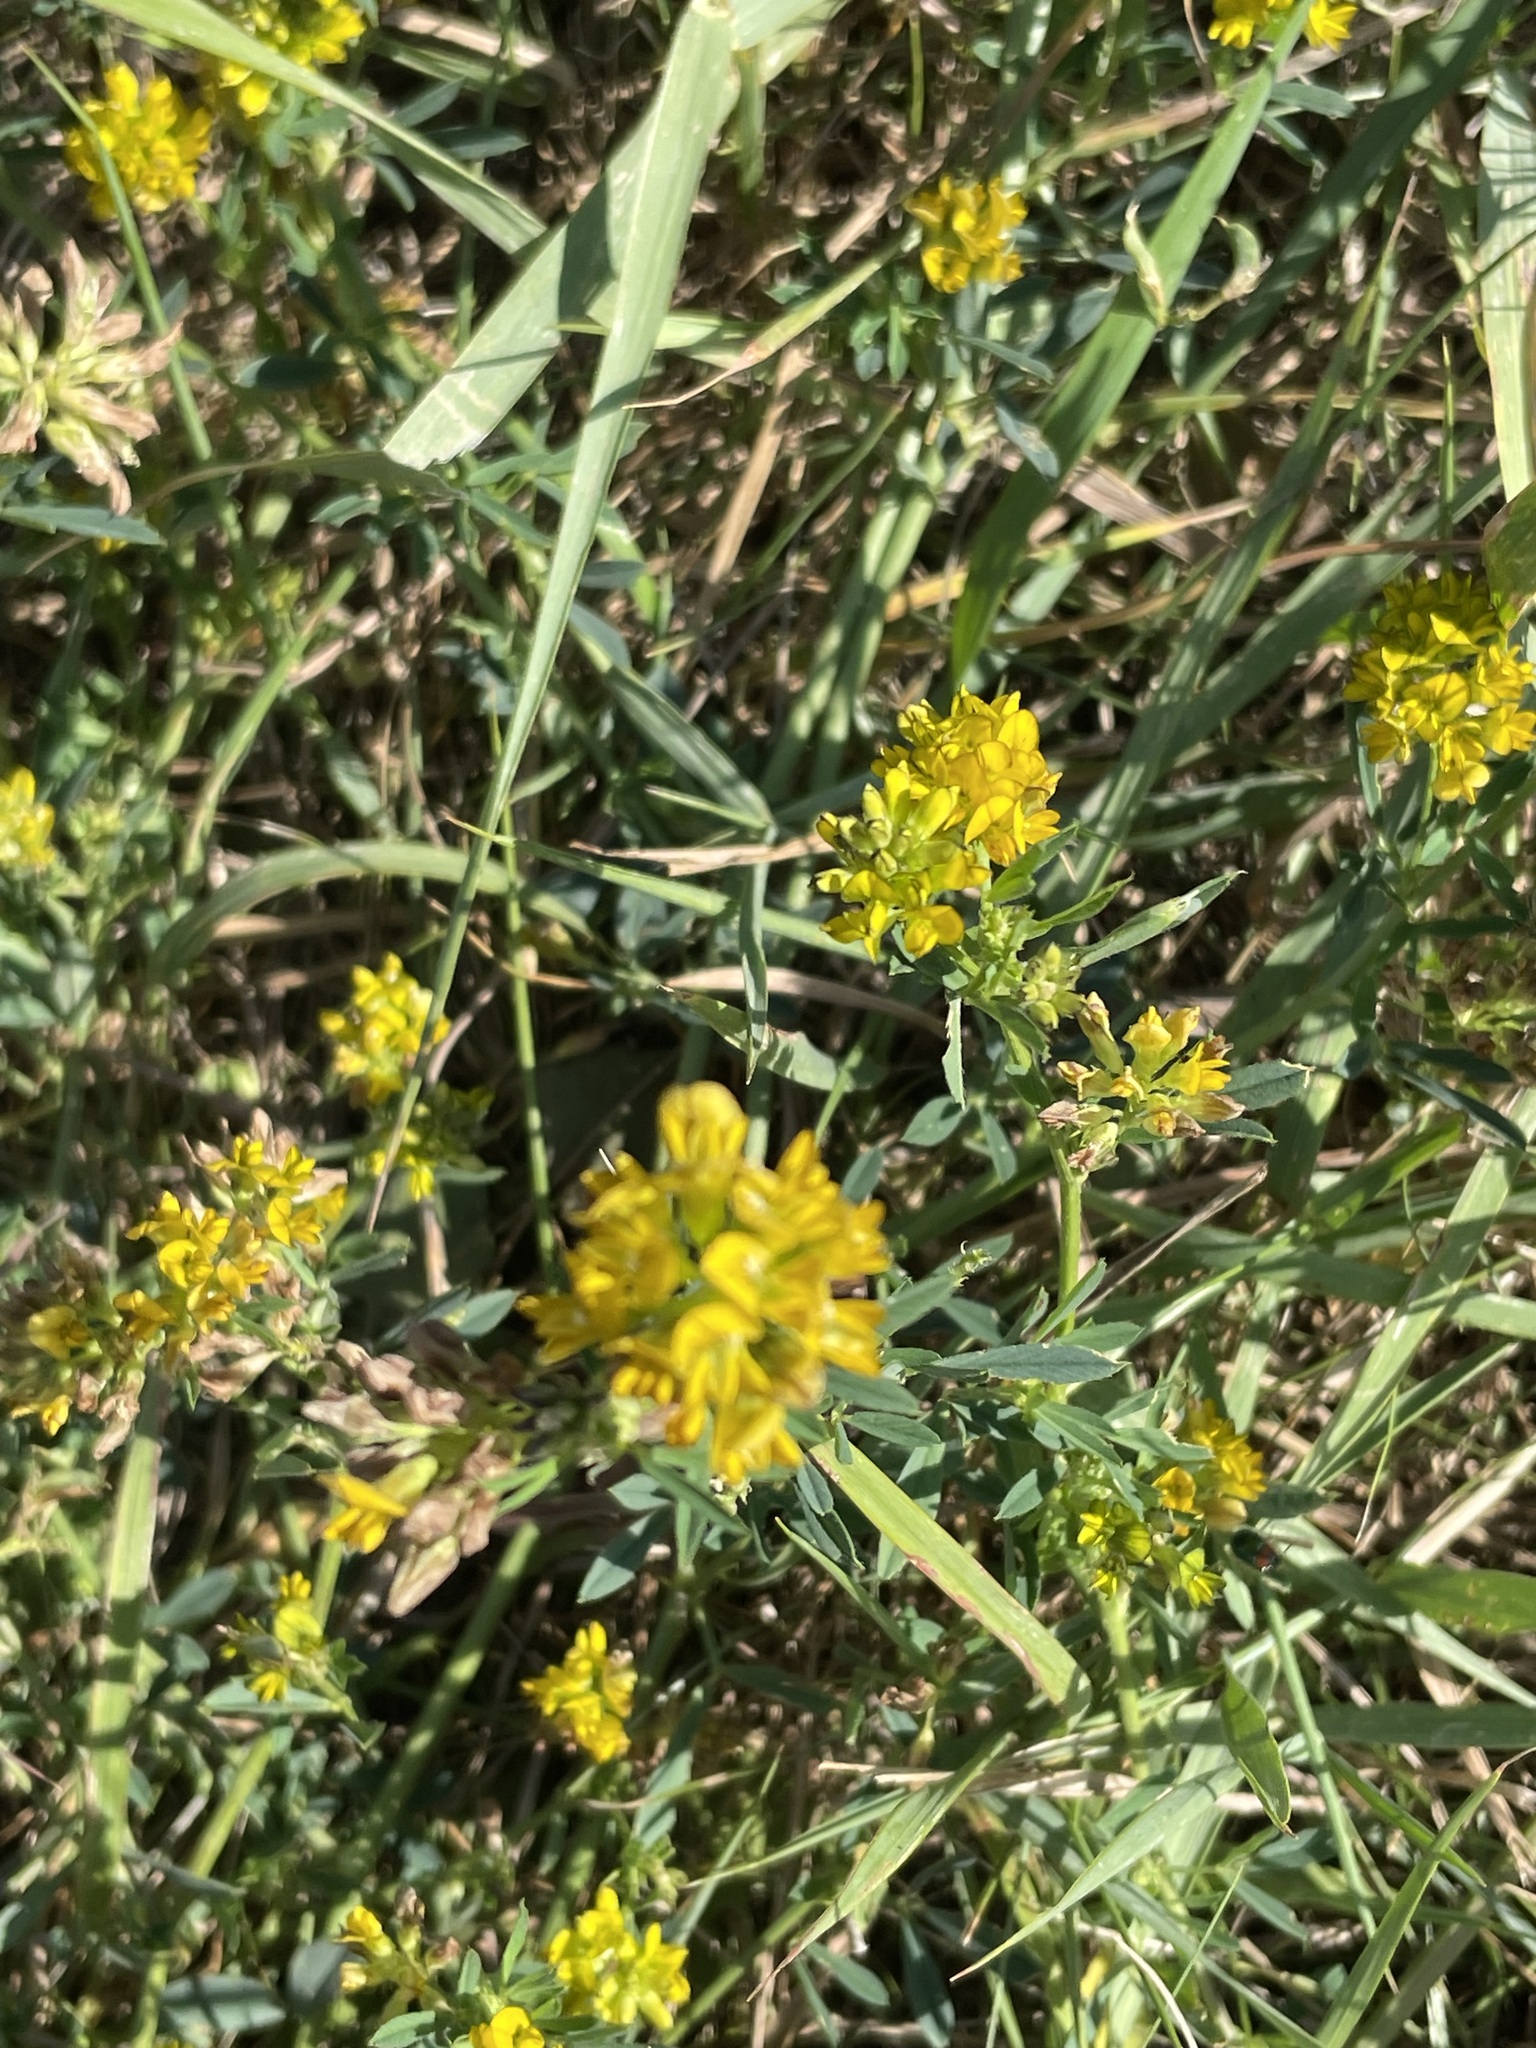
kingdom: Plantae
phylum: Tracheophyta
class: Magnoliopsida
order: Fabales
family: Fabaceae
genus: Medicago
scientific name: Medicago varia
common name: Sand lucerne
